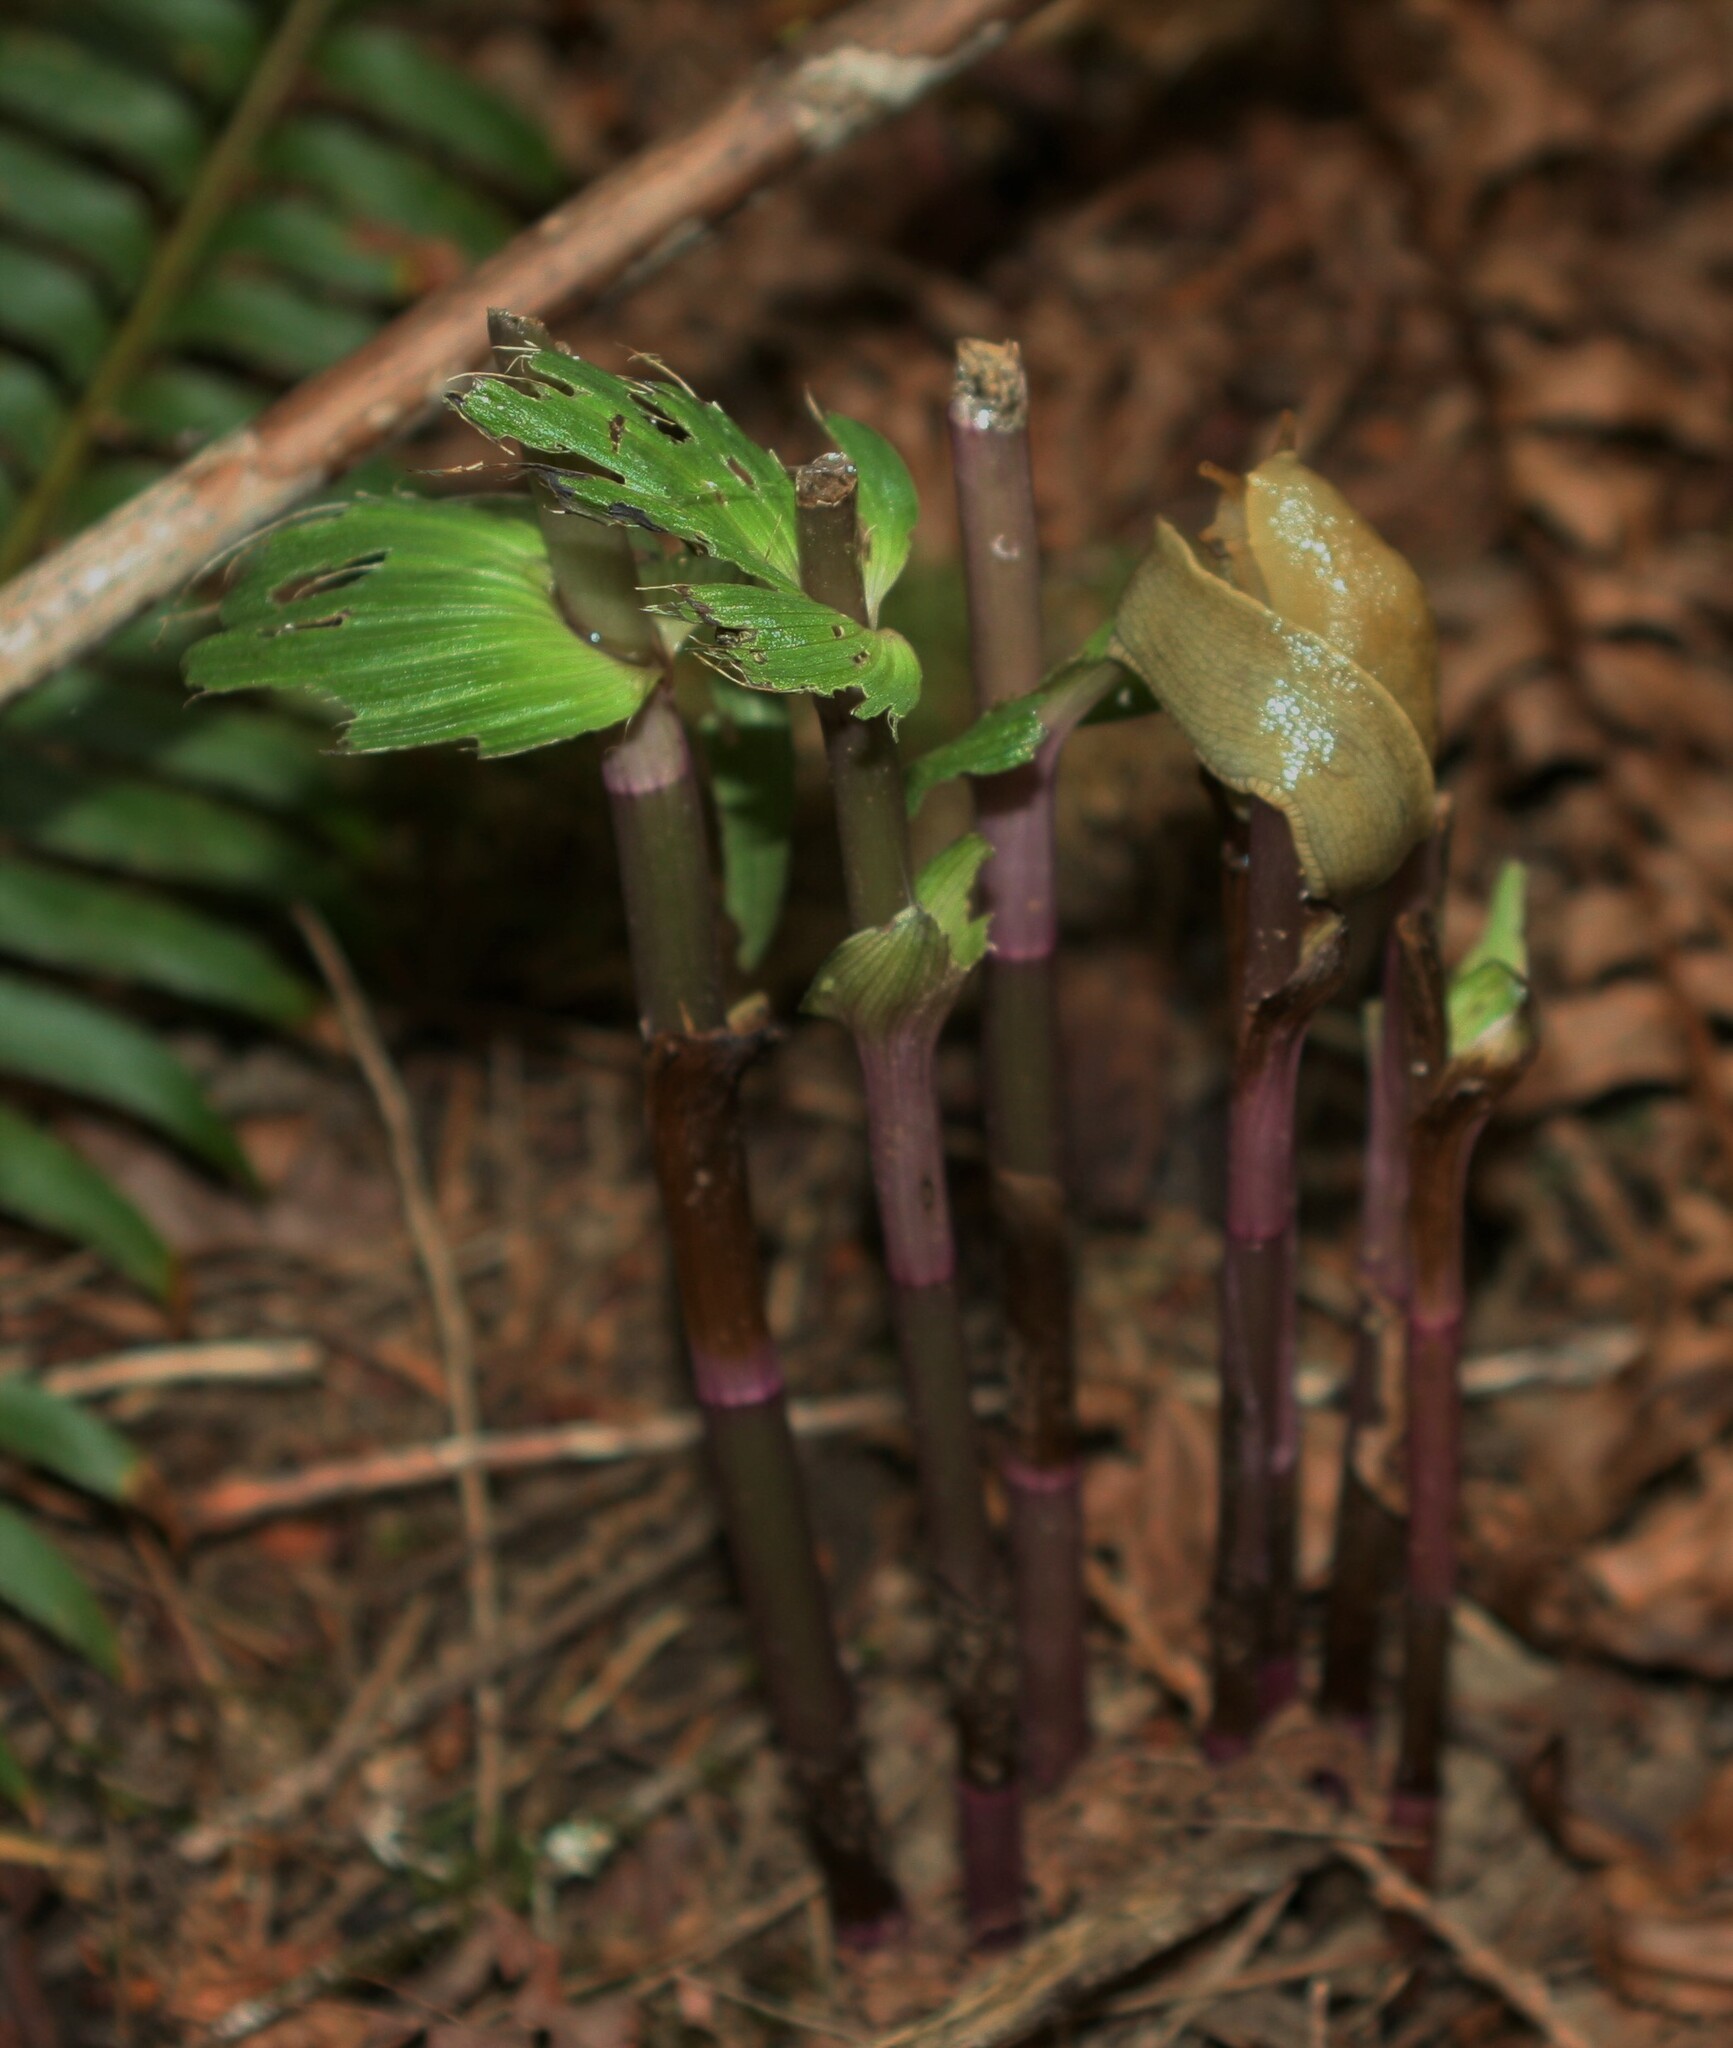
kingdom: Animalia
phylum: Mollusca
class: Gastropoda
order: Stylommatophora
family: Ariolimacidae
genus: Ariolimax
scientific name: Ariolimax columbianus
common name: Pacific banana slug
